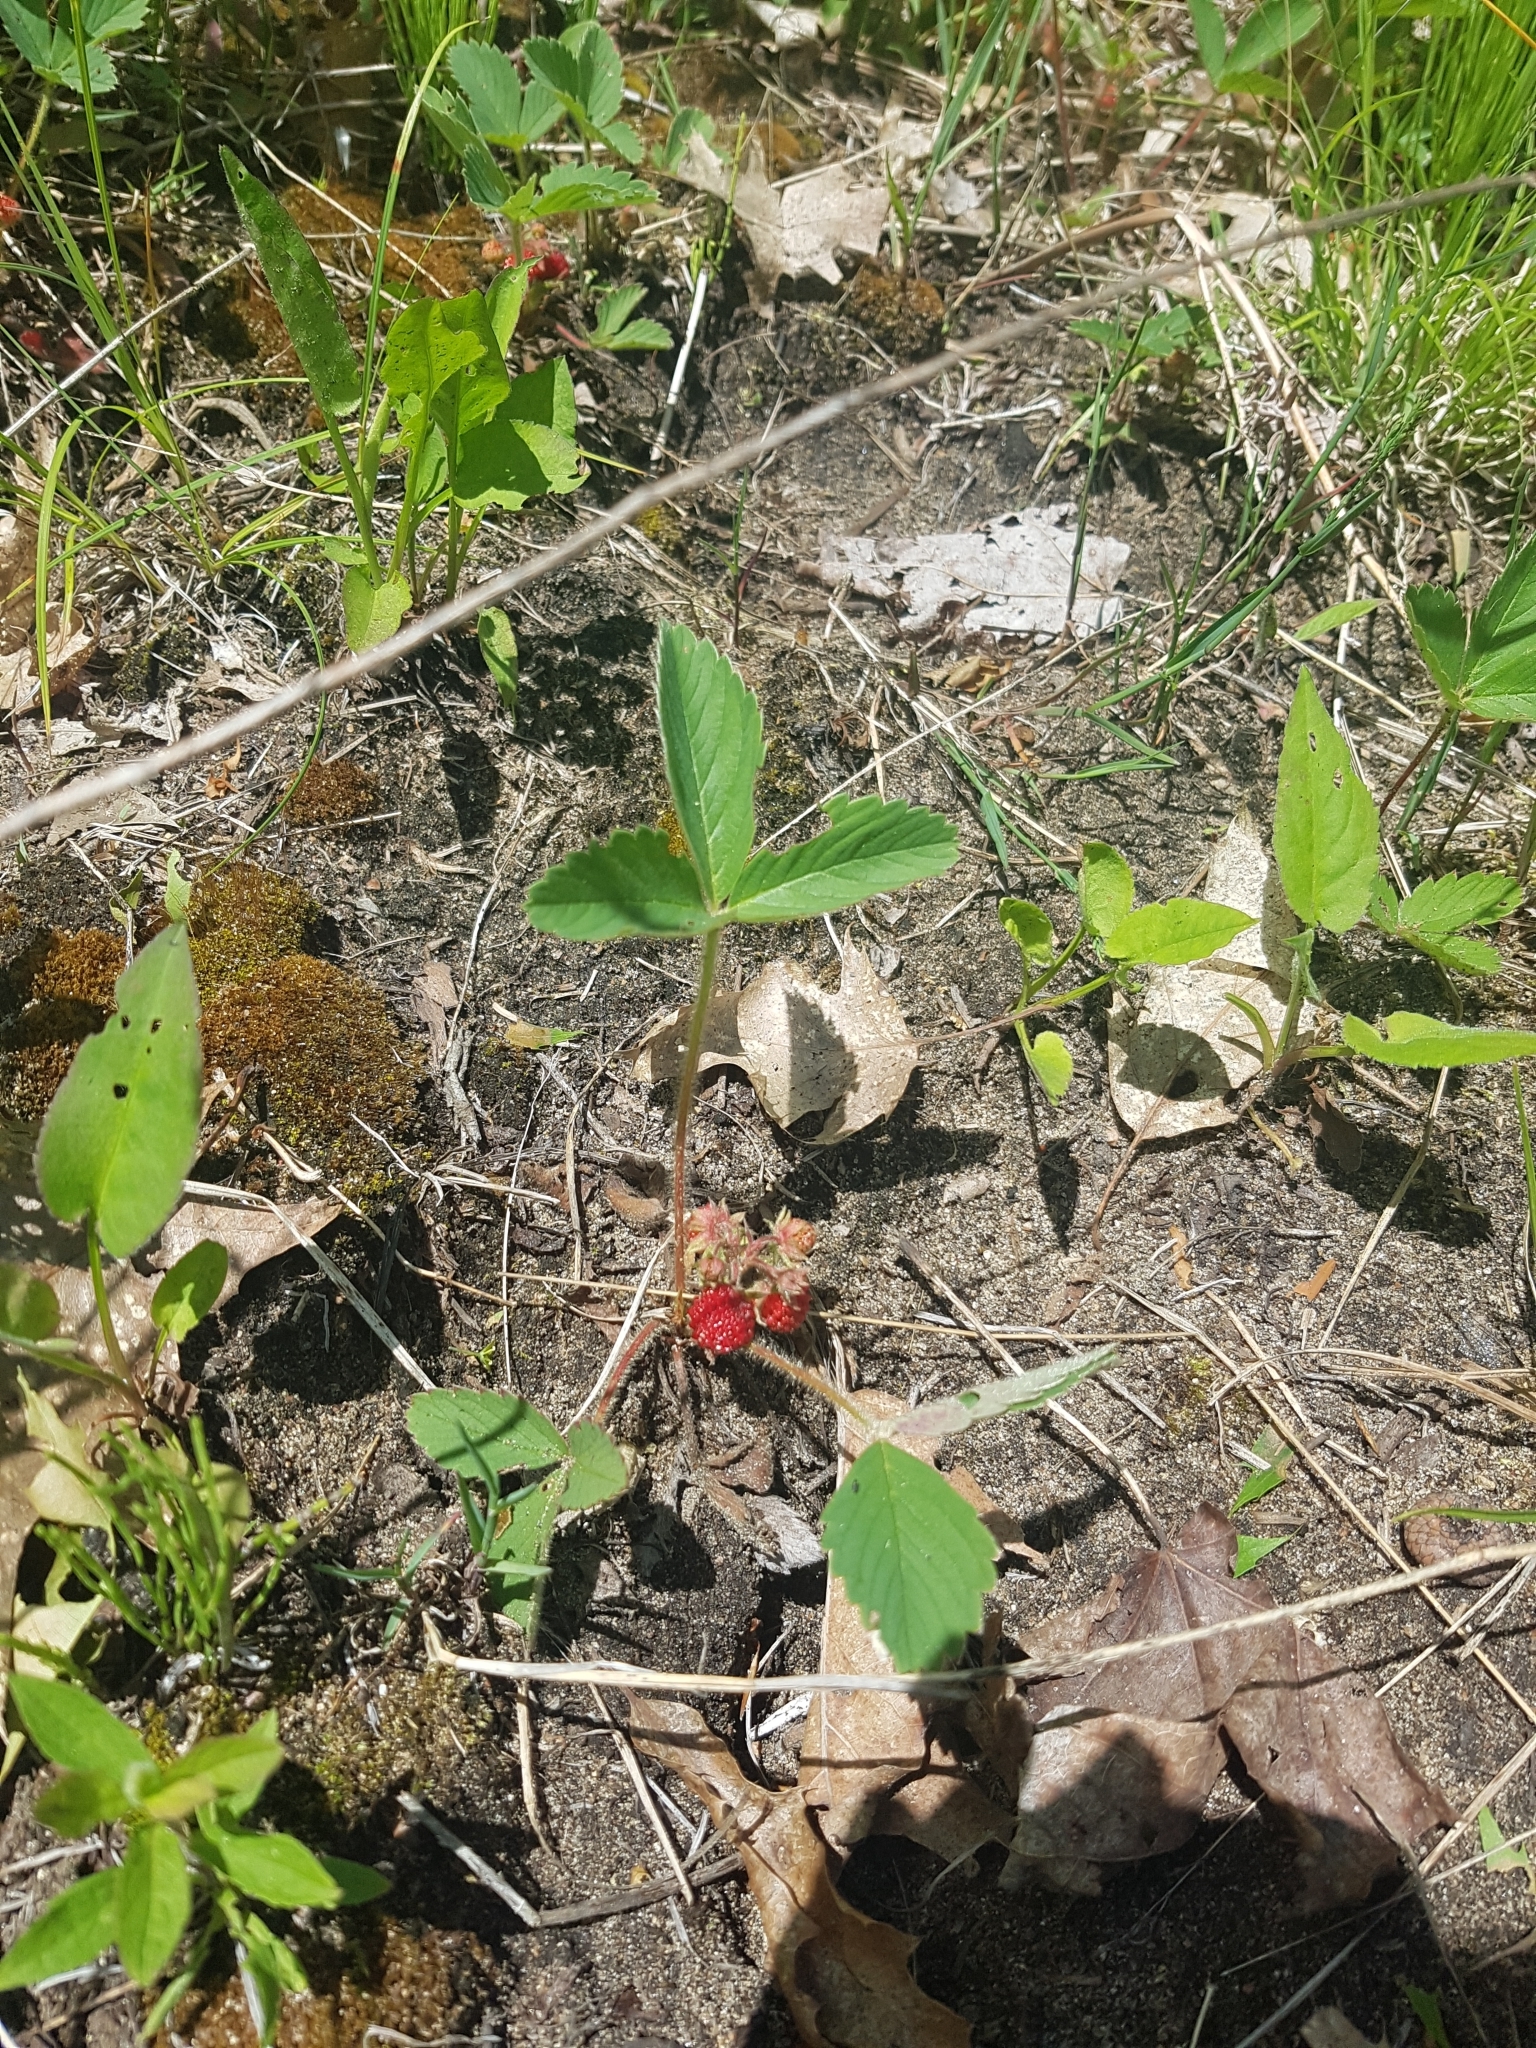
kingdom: Plantae
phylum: Tracheophyta
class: Magnoliopsida
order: Rosales
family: Rosaceae
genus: Fragaria
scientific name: Fragaria virginiana
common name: Thickleaved wild strawberry
